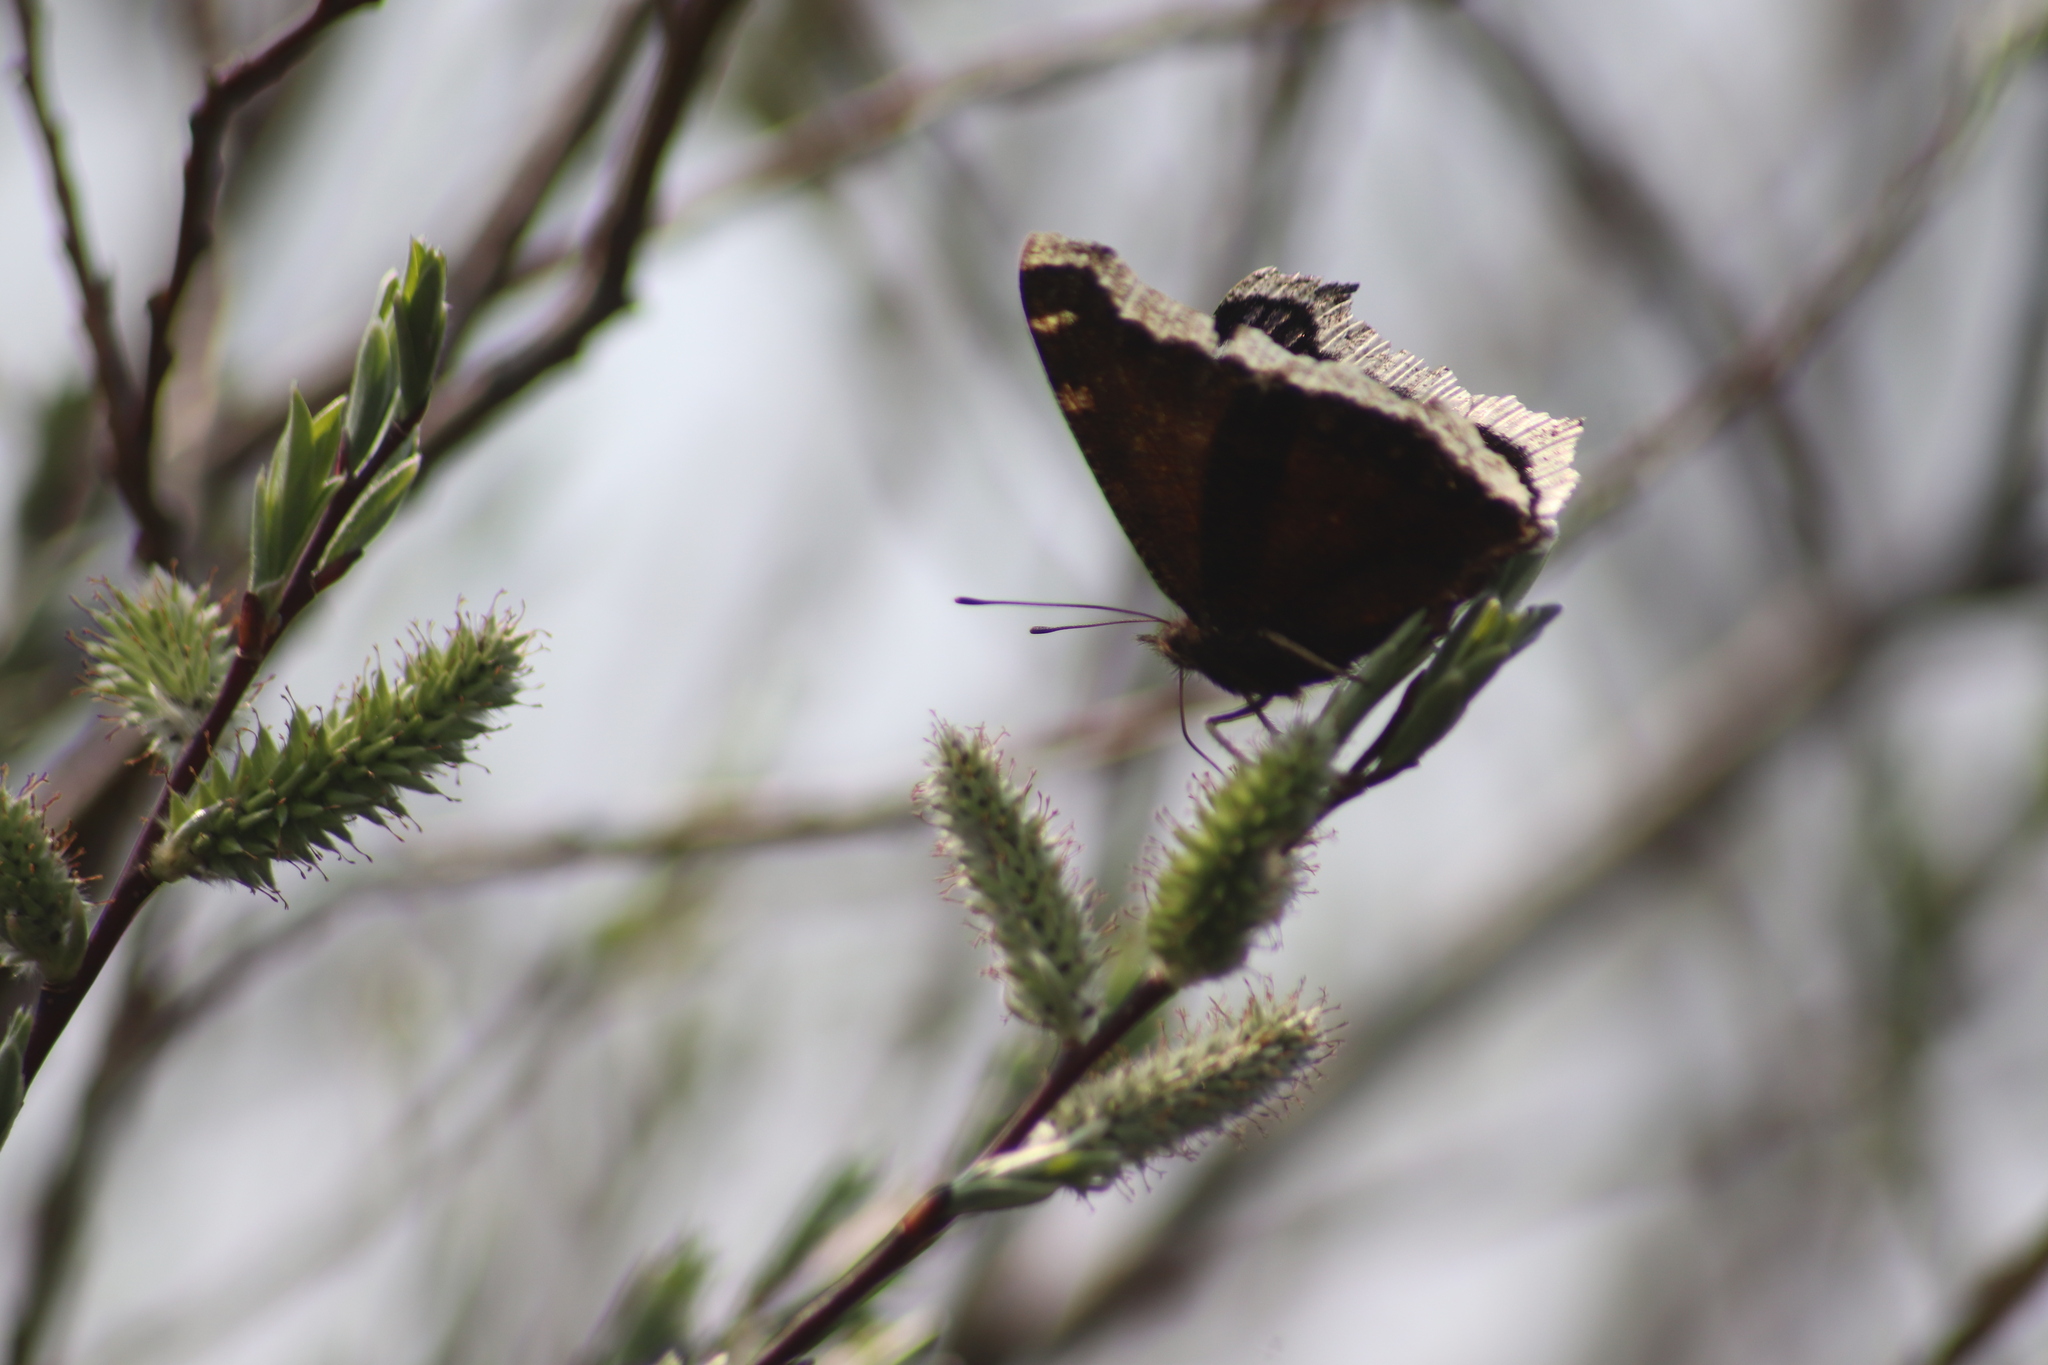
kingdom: Animalia
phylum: Arthropoda
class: Insecta
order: Lepidoptera
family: Nymphalidae
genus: Nymphalis
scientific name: Nymphalis antiopa
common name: Camberwell beauty
